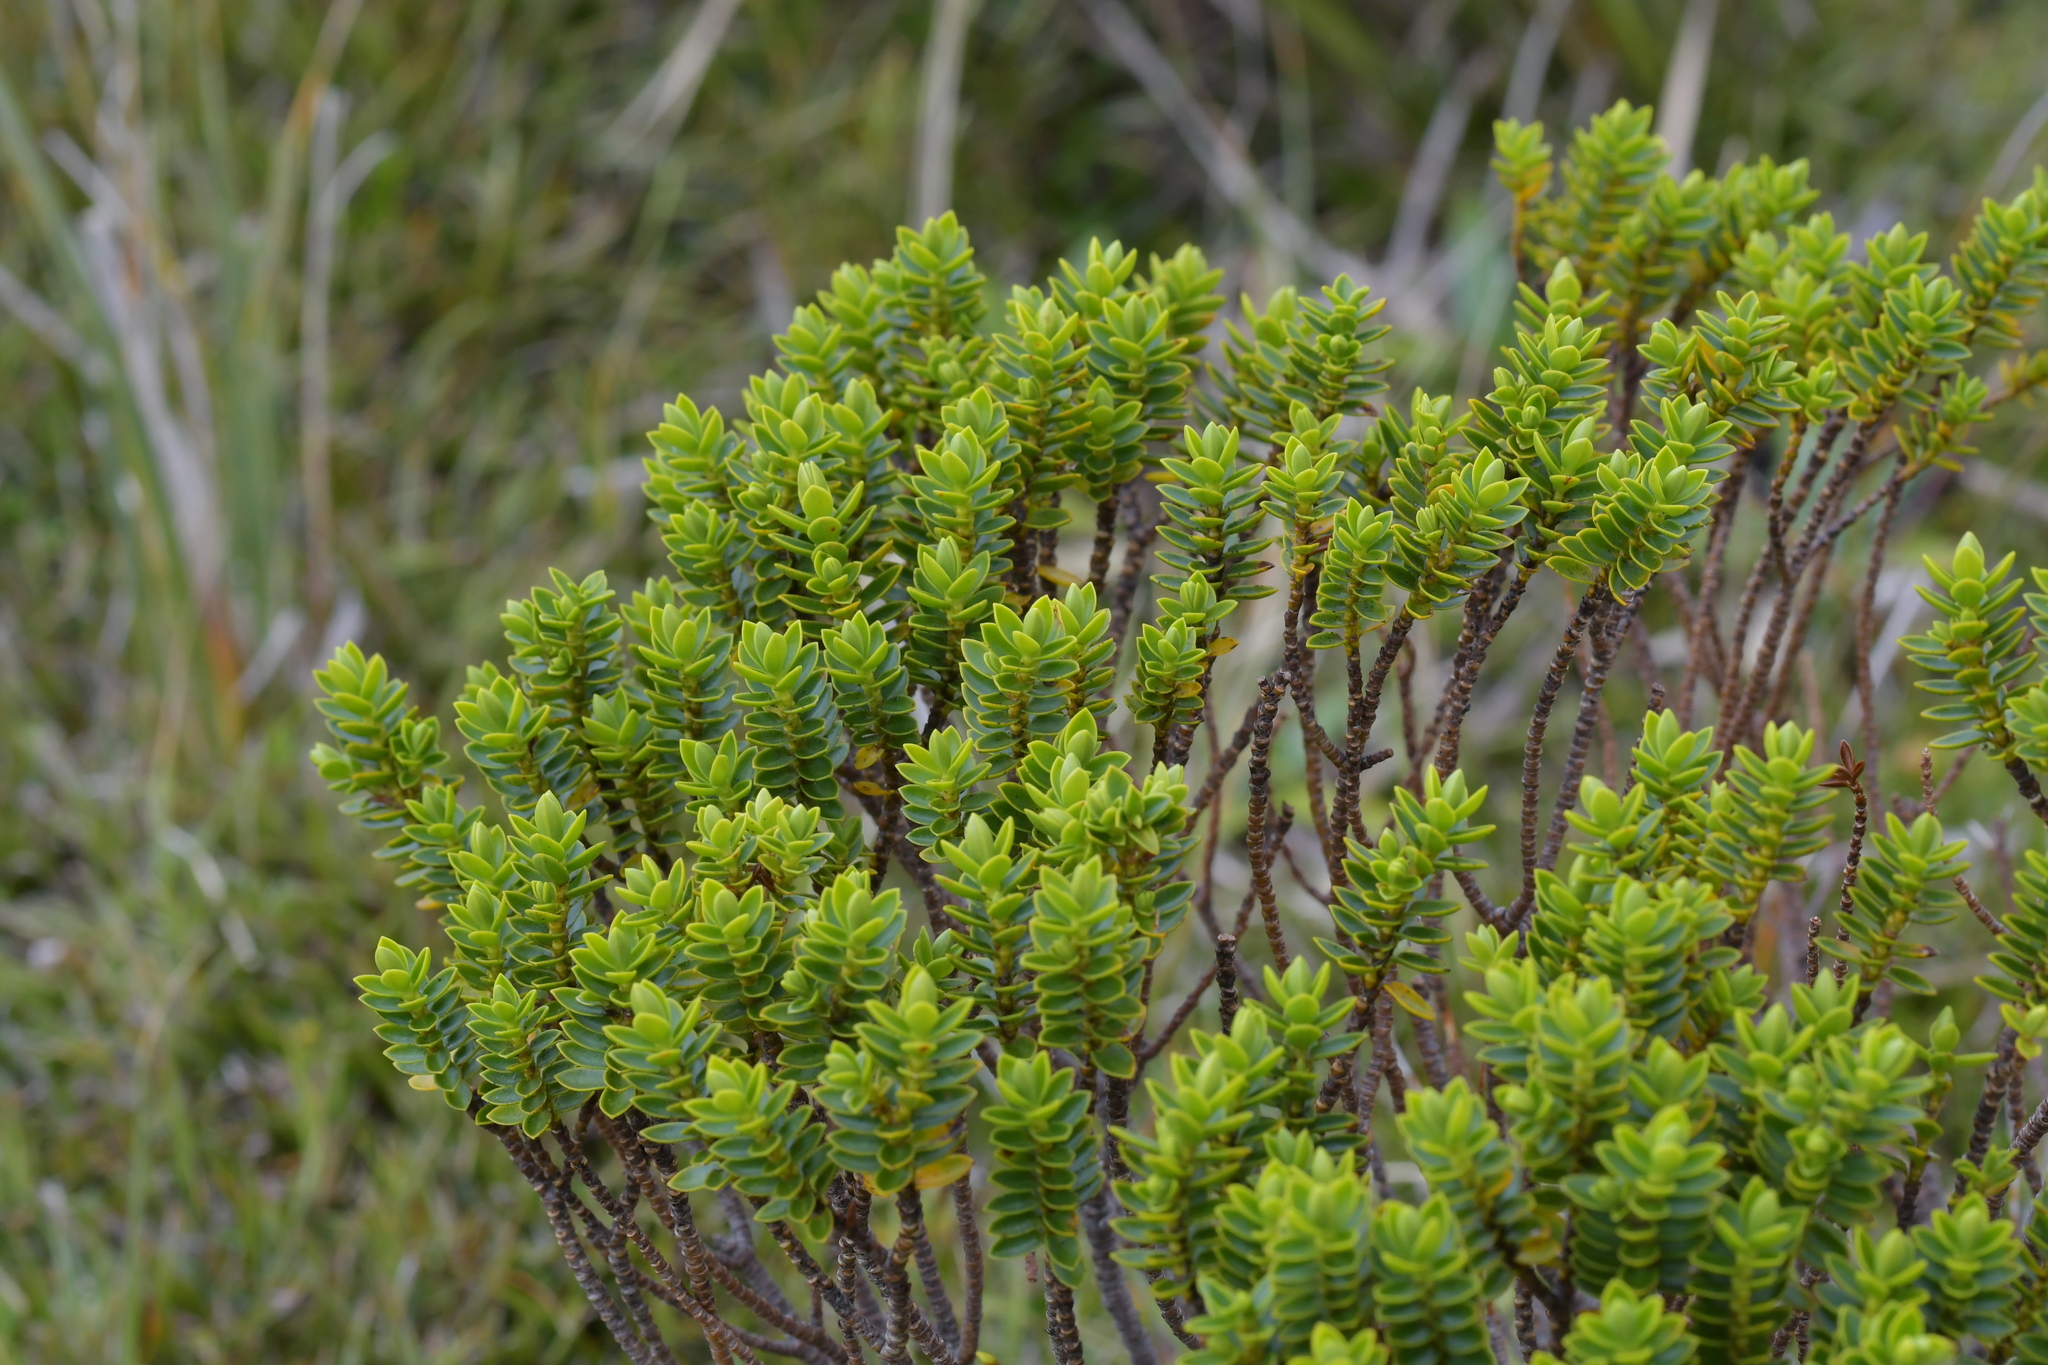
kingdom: Plantae
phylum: Tracheophyta
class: Magnoliopsida
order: Lamiales
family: Plantaginaceae
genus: Veronica
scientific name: Veronica odora
